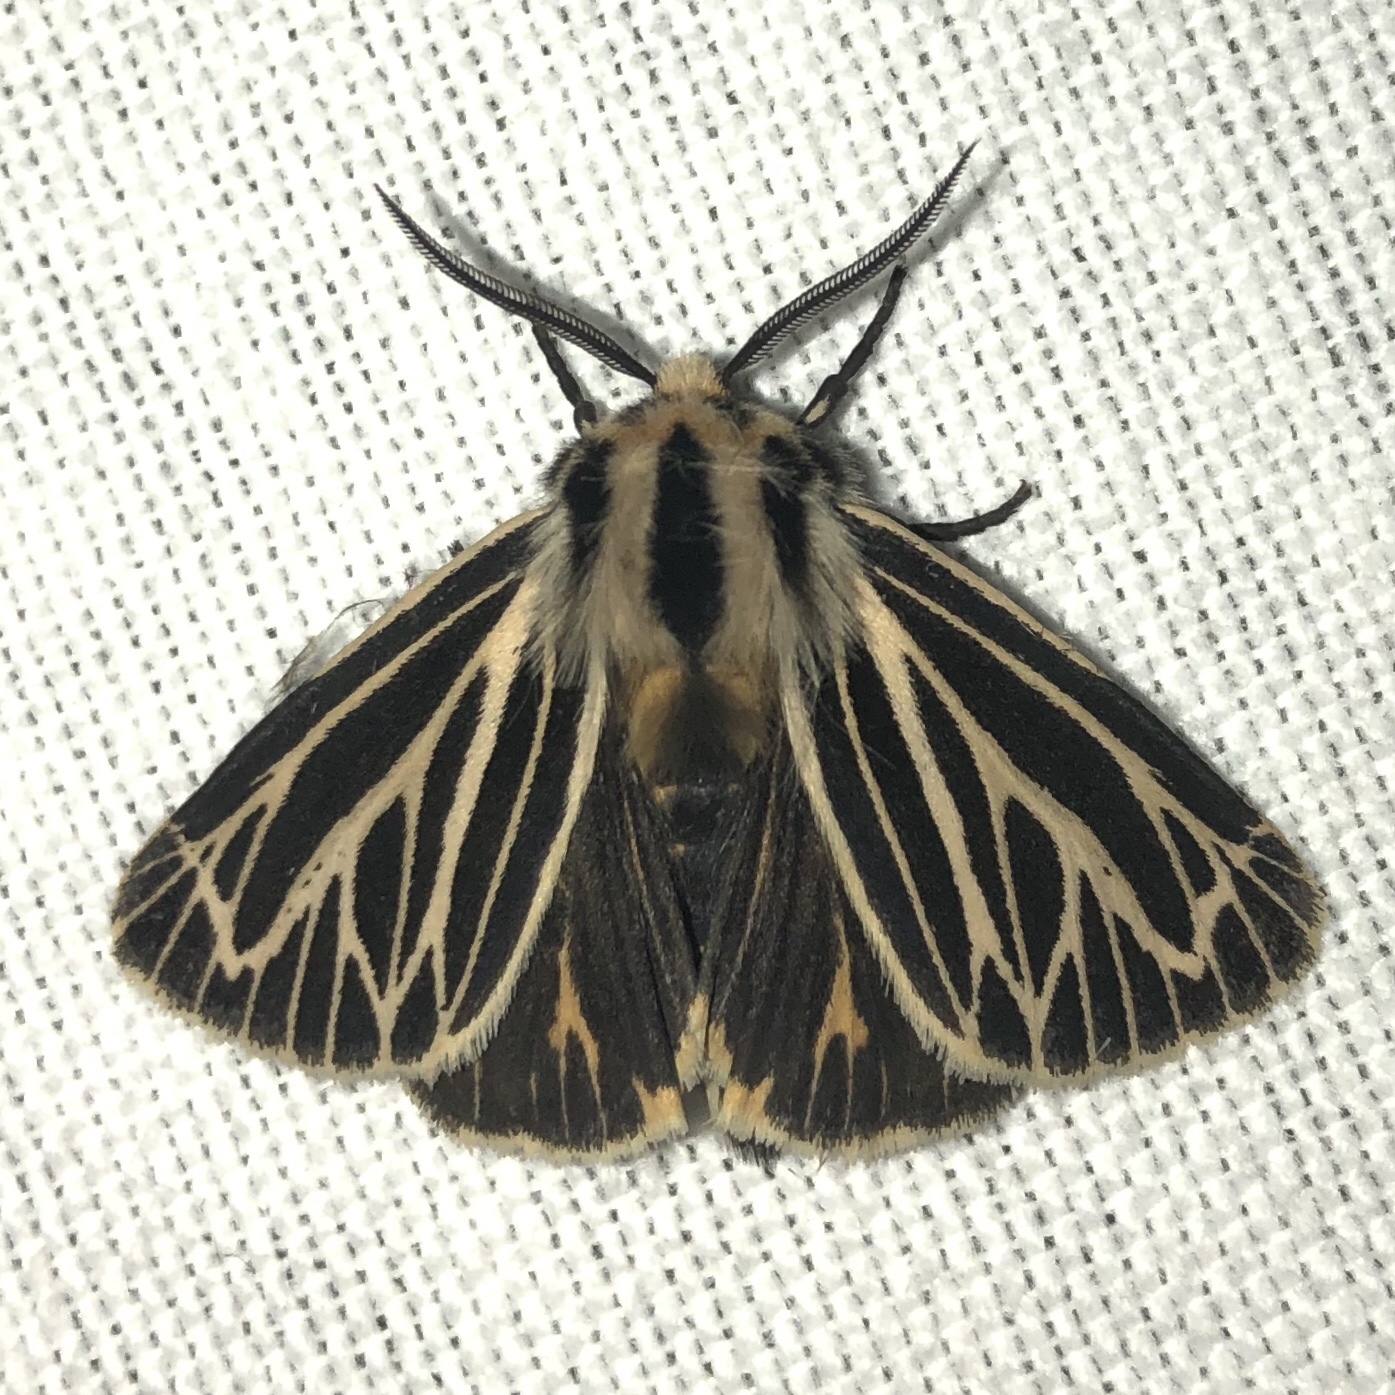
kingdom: Animalia
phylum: Arthropoda
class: Insecta
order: Lepidoptera
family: Erebidae
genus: Grammia
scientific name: Grammia virguncula
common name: Little tiger moth
